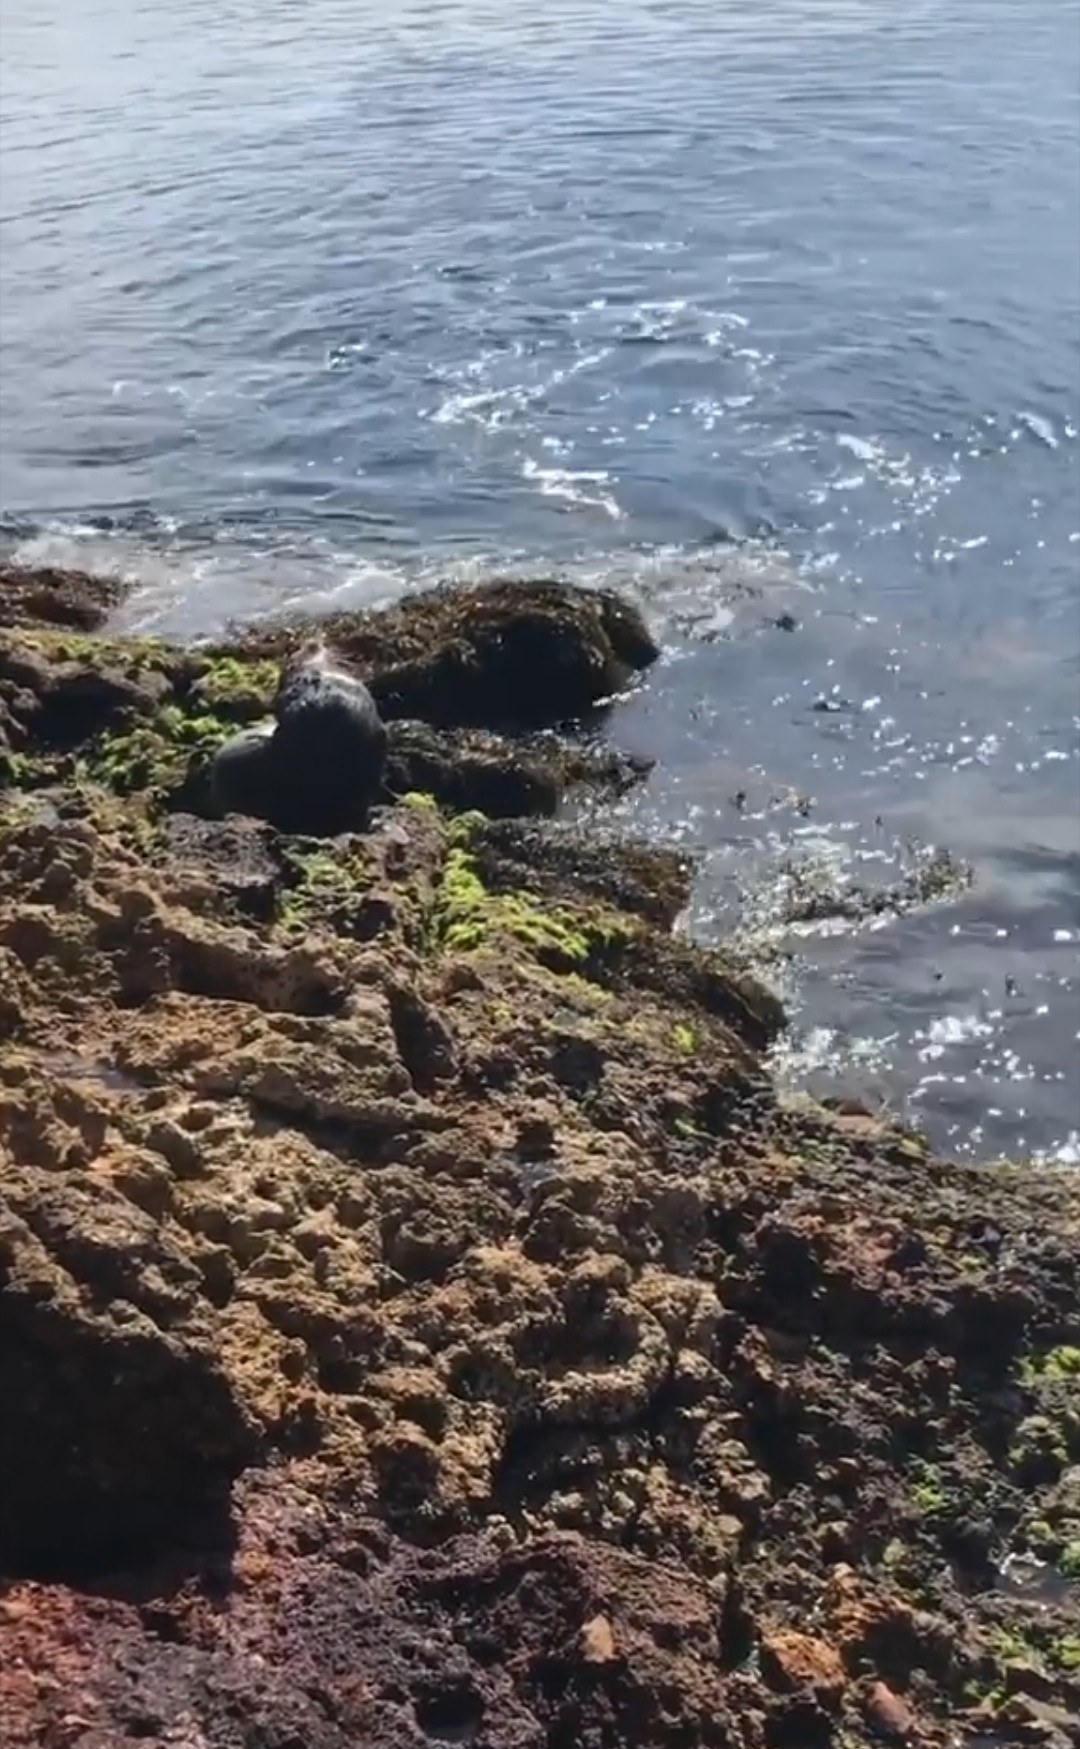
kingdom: Animalia
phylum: Chordata
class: Mammalia
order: Carnivora
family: Otariidae
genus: Arctocephalus
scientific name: Arctocephalus forsteri
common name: New zealand fur seal
